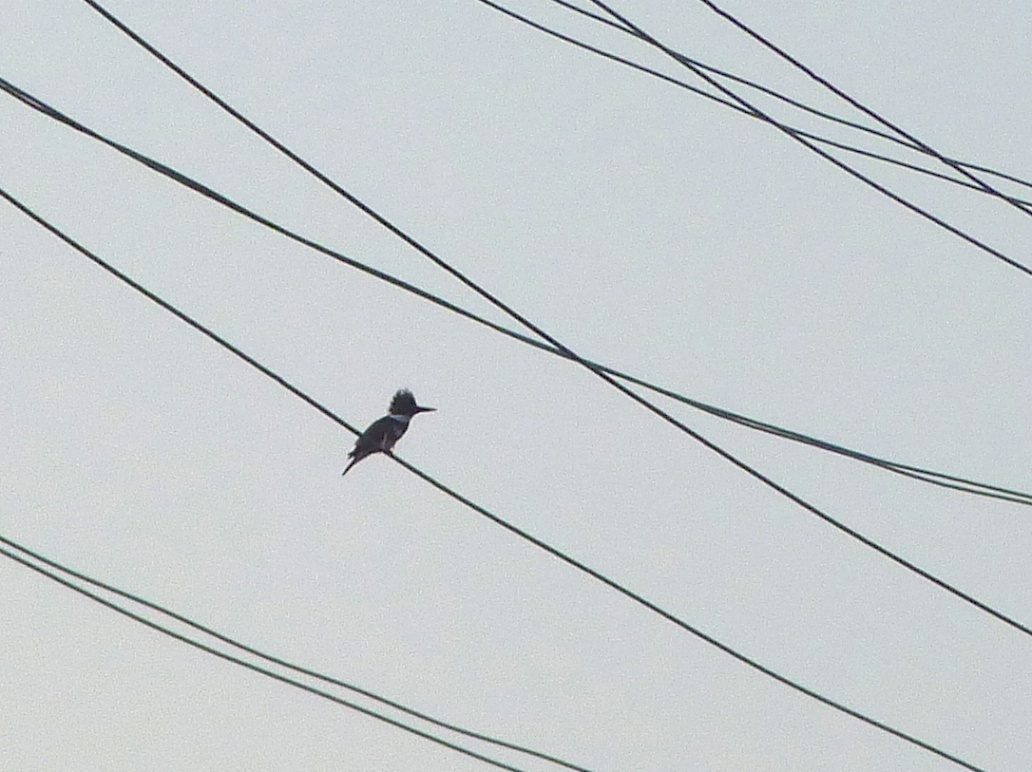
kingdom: Animalia
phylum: Chordata
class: Aves
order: Coraciiformes
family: Alcedinidae
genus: Megaceryle
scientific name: Megaceryle alcyon
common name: Belted kingfisher
